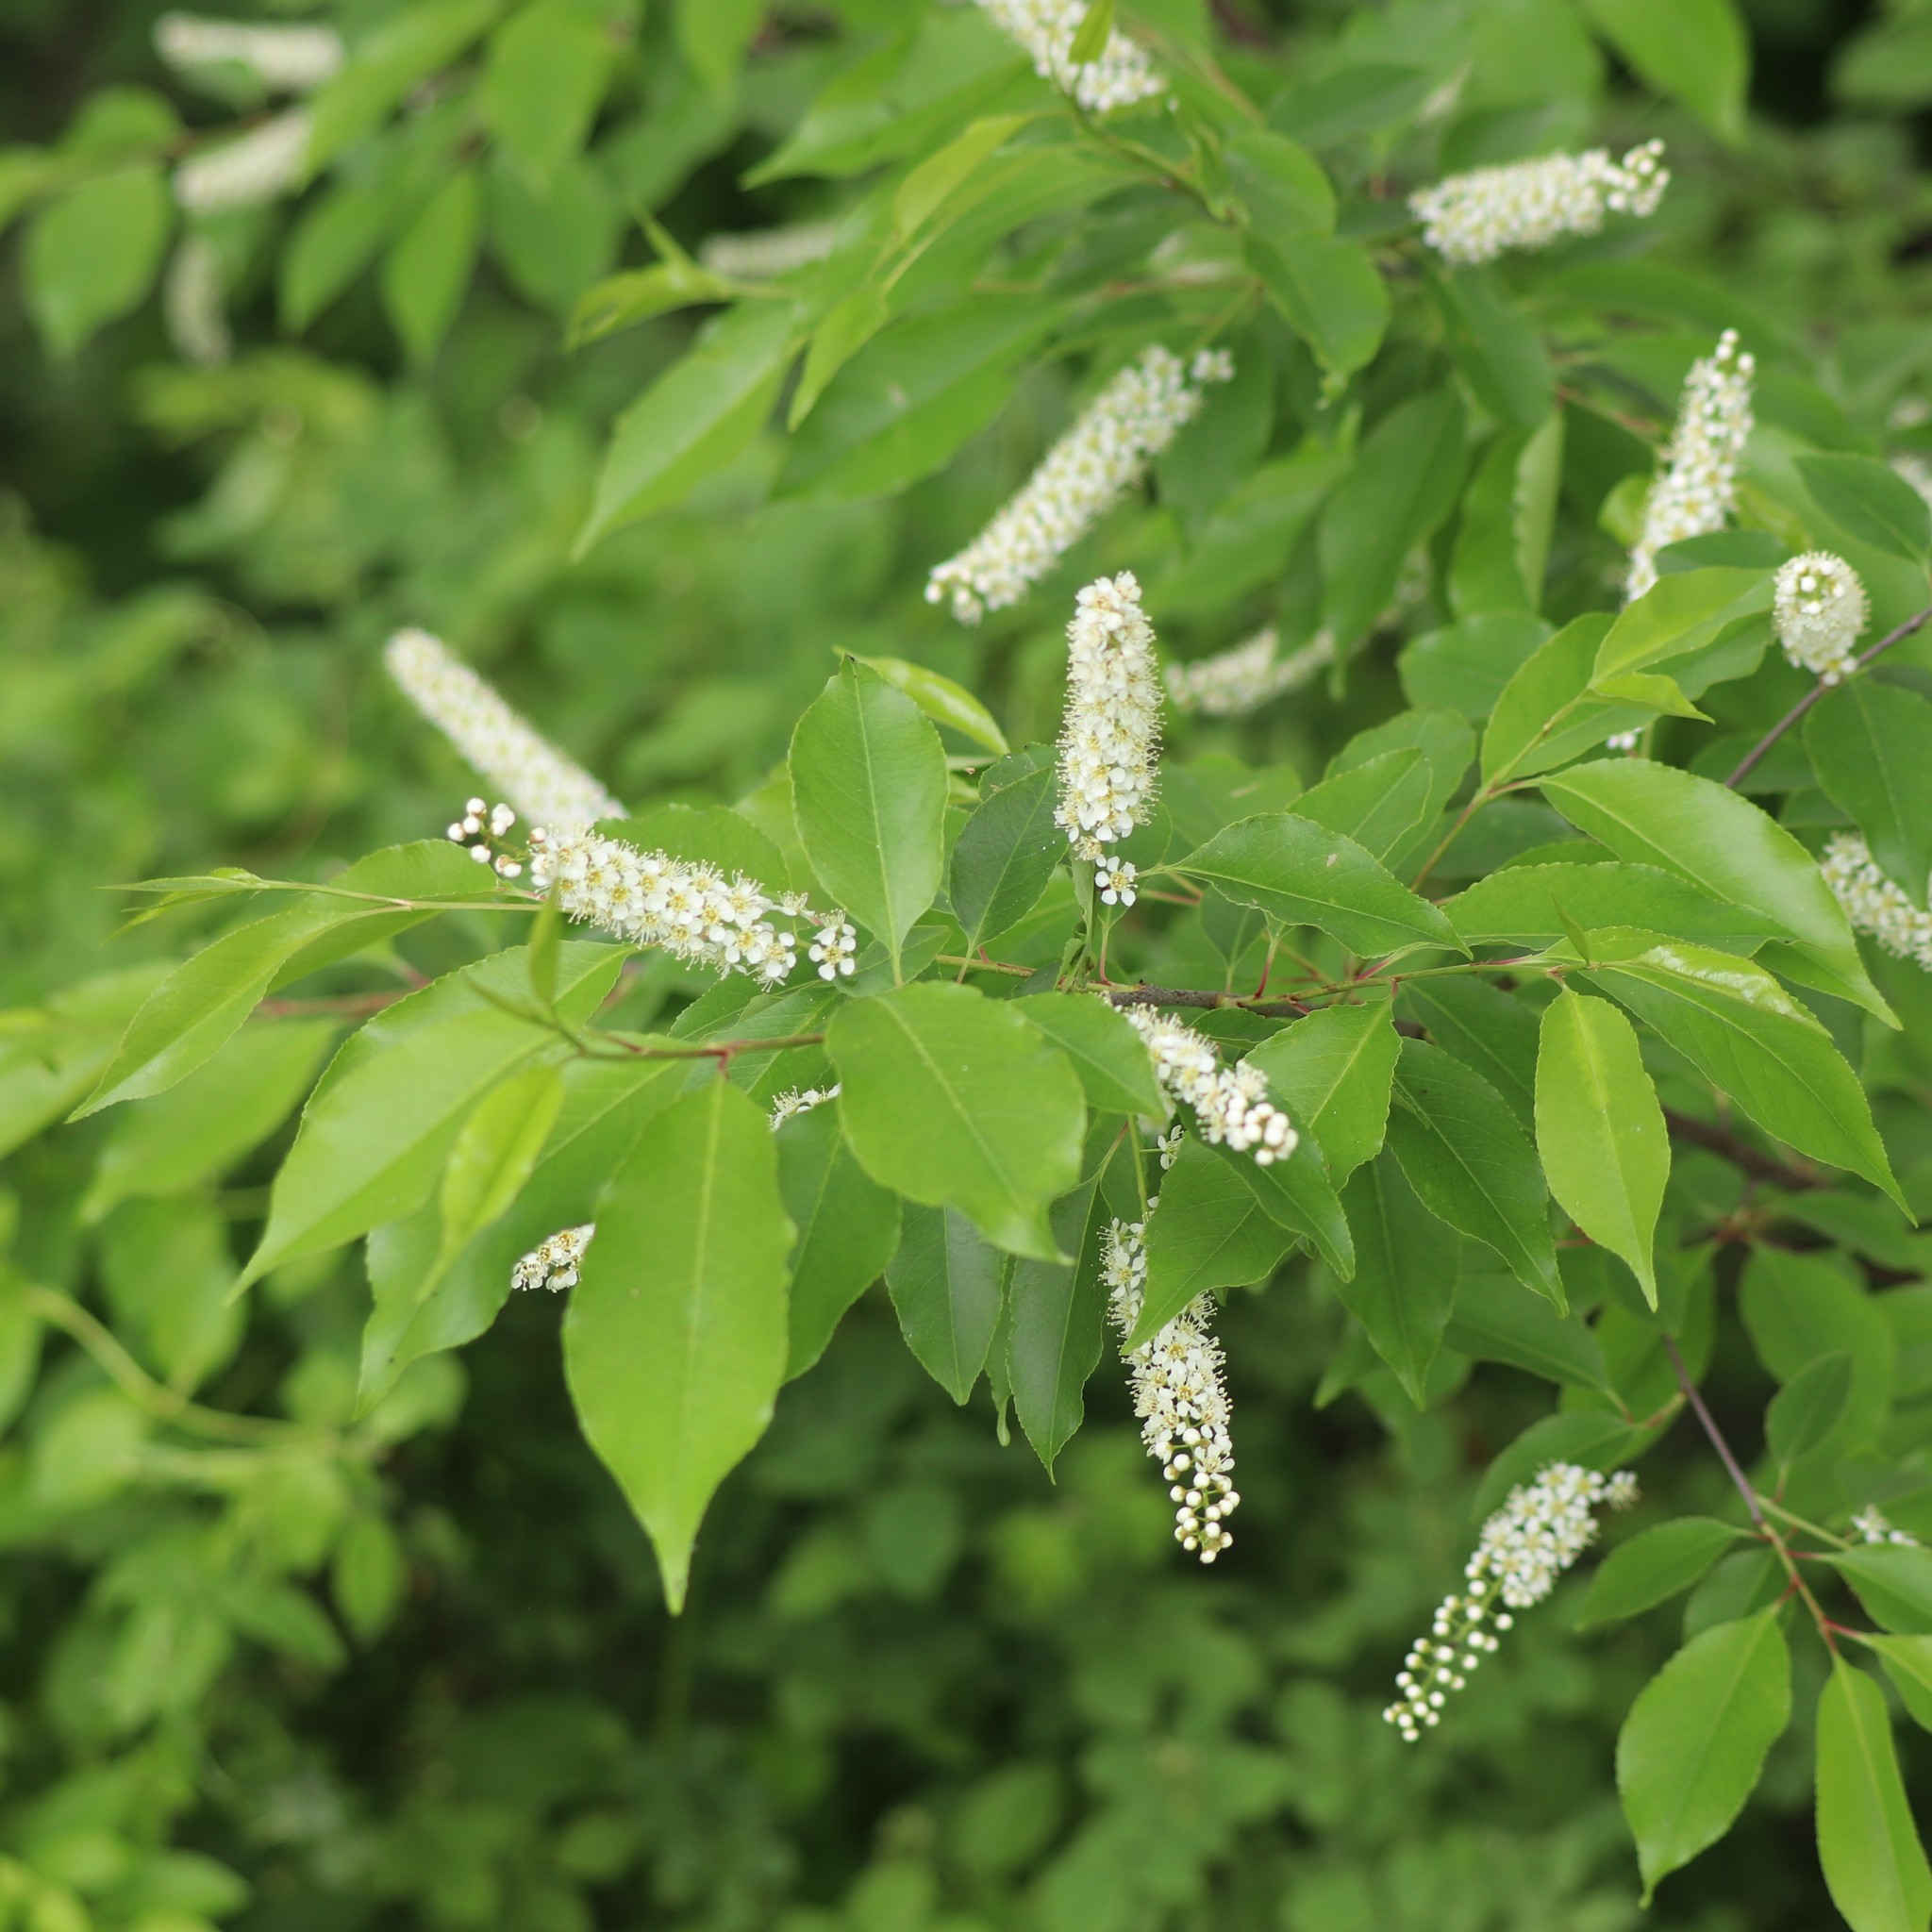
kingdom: Plantae
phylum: Tracheophyta
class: Magnoliopsida
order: Rosales
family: Rosaceae
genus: Prunus
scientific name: Prunus serotina
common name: Black cherry
